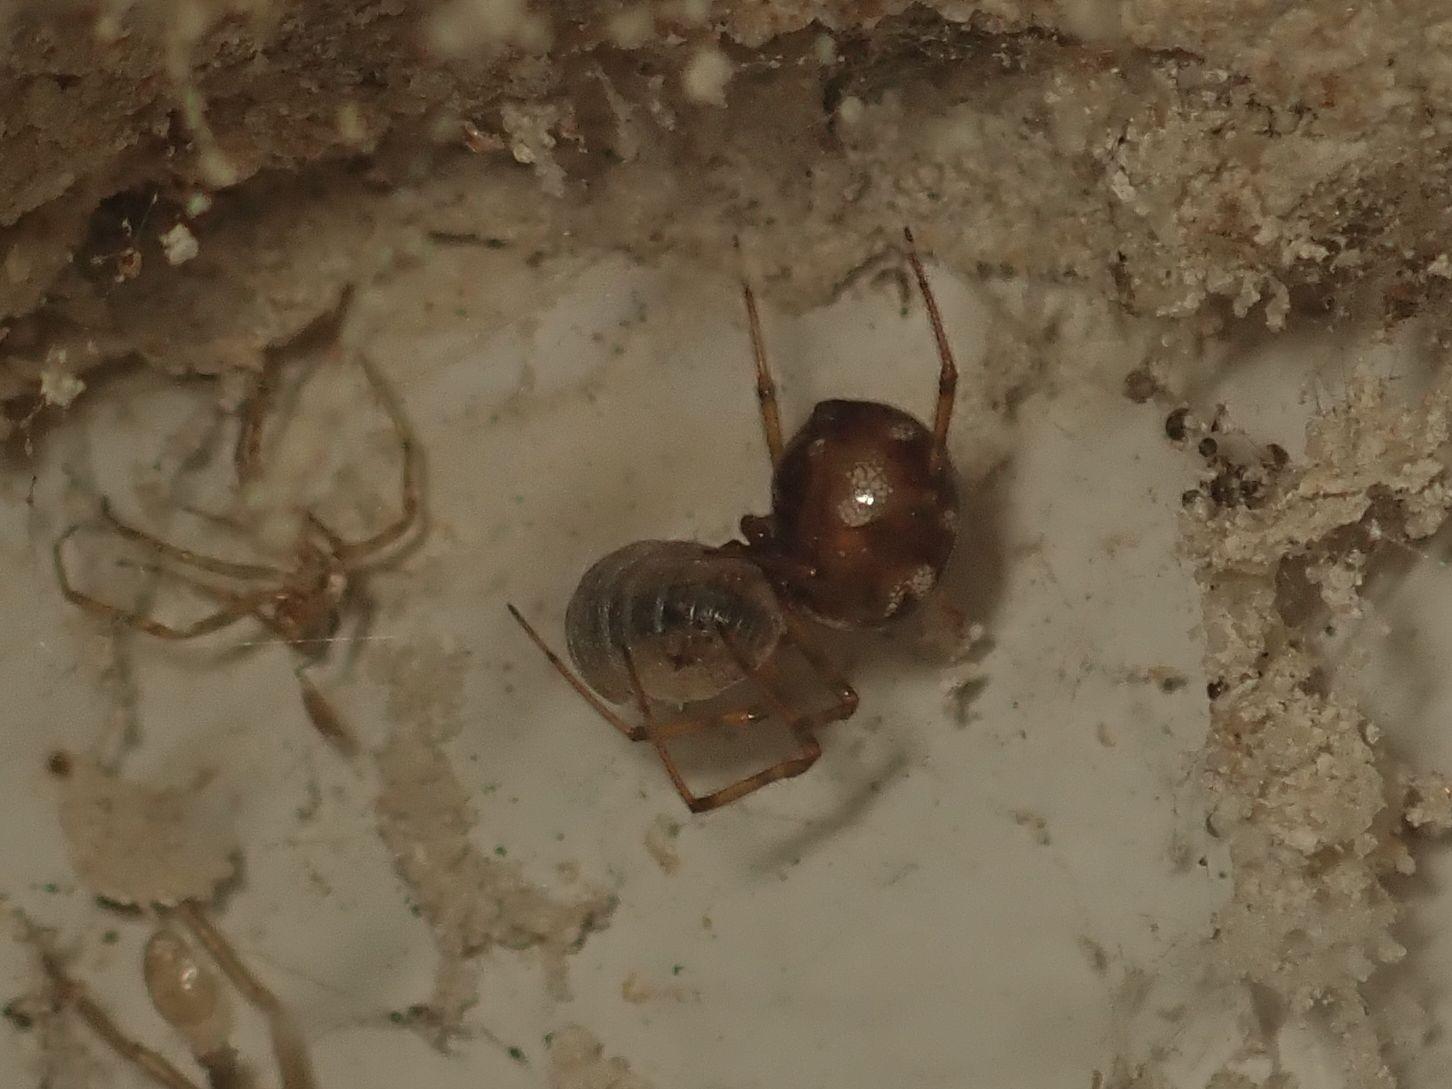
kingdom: Animalia
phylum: Arthropoda
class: Arachnida
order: Araneae
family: Theridiidae
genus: Steatoda
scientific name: Steatoda triangulosa
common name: Triangulate bud spider
